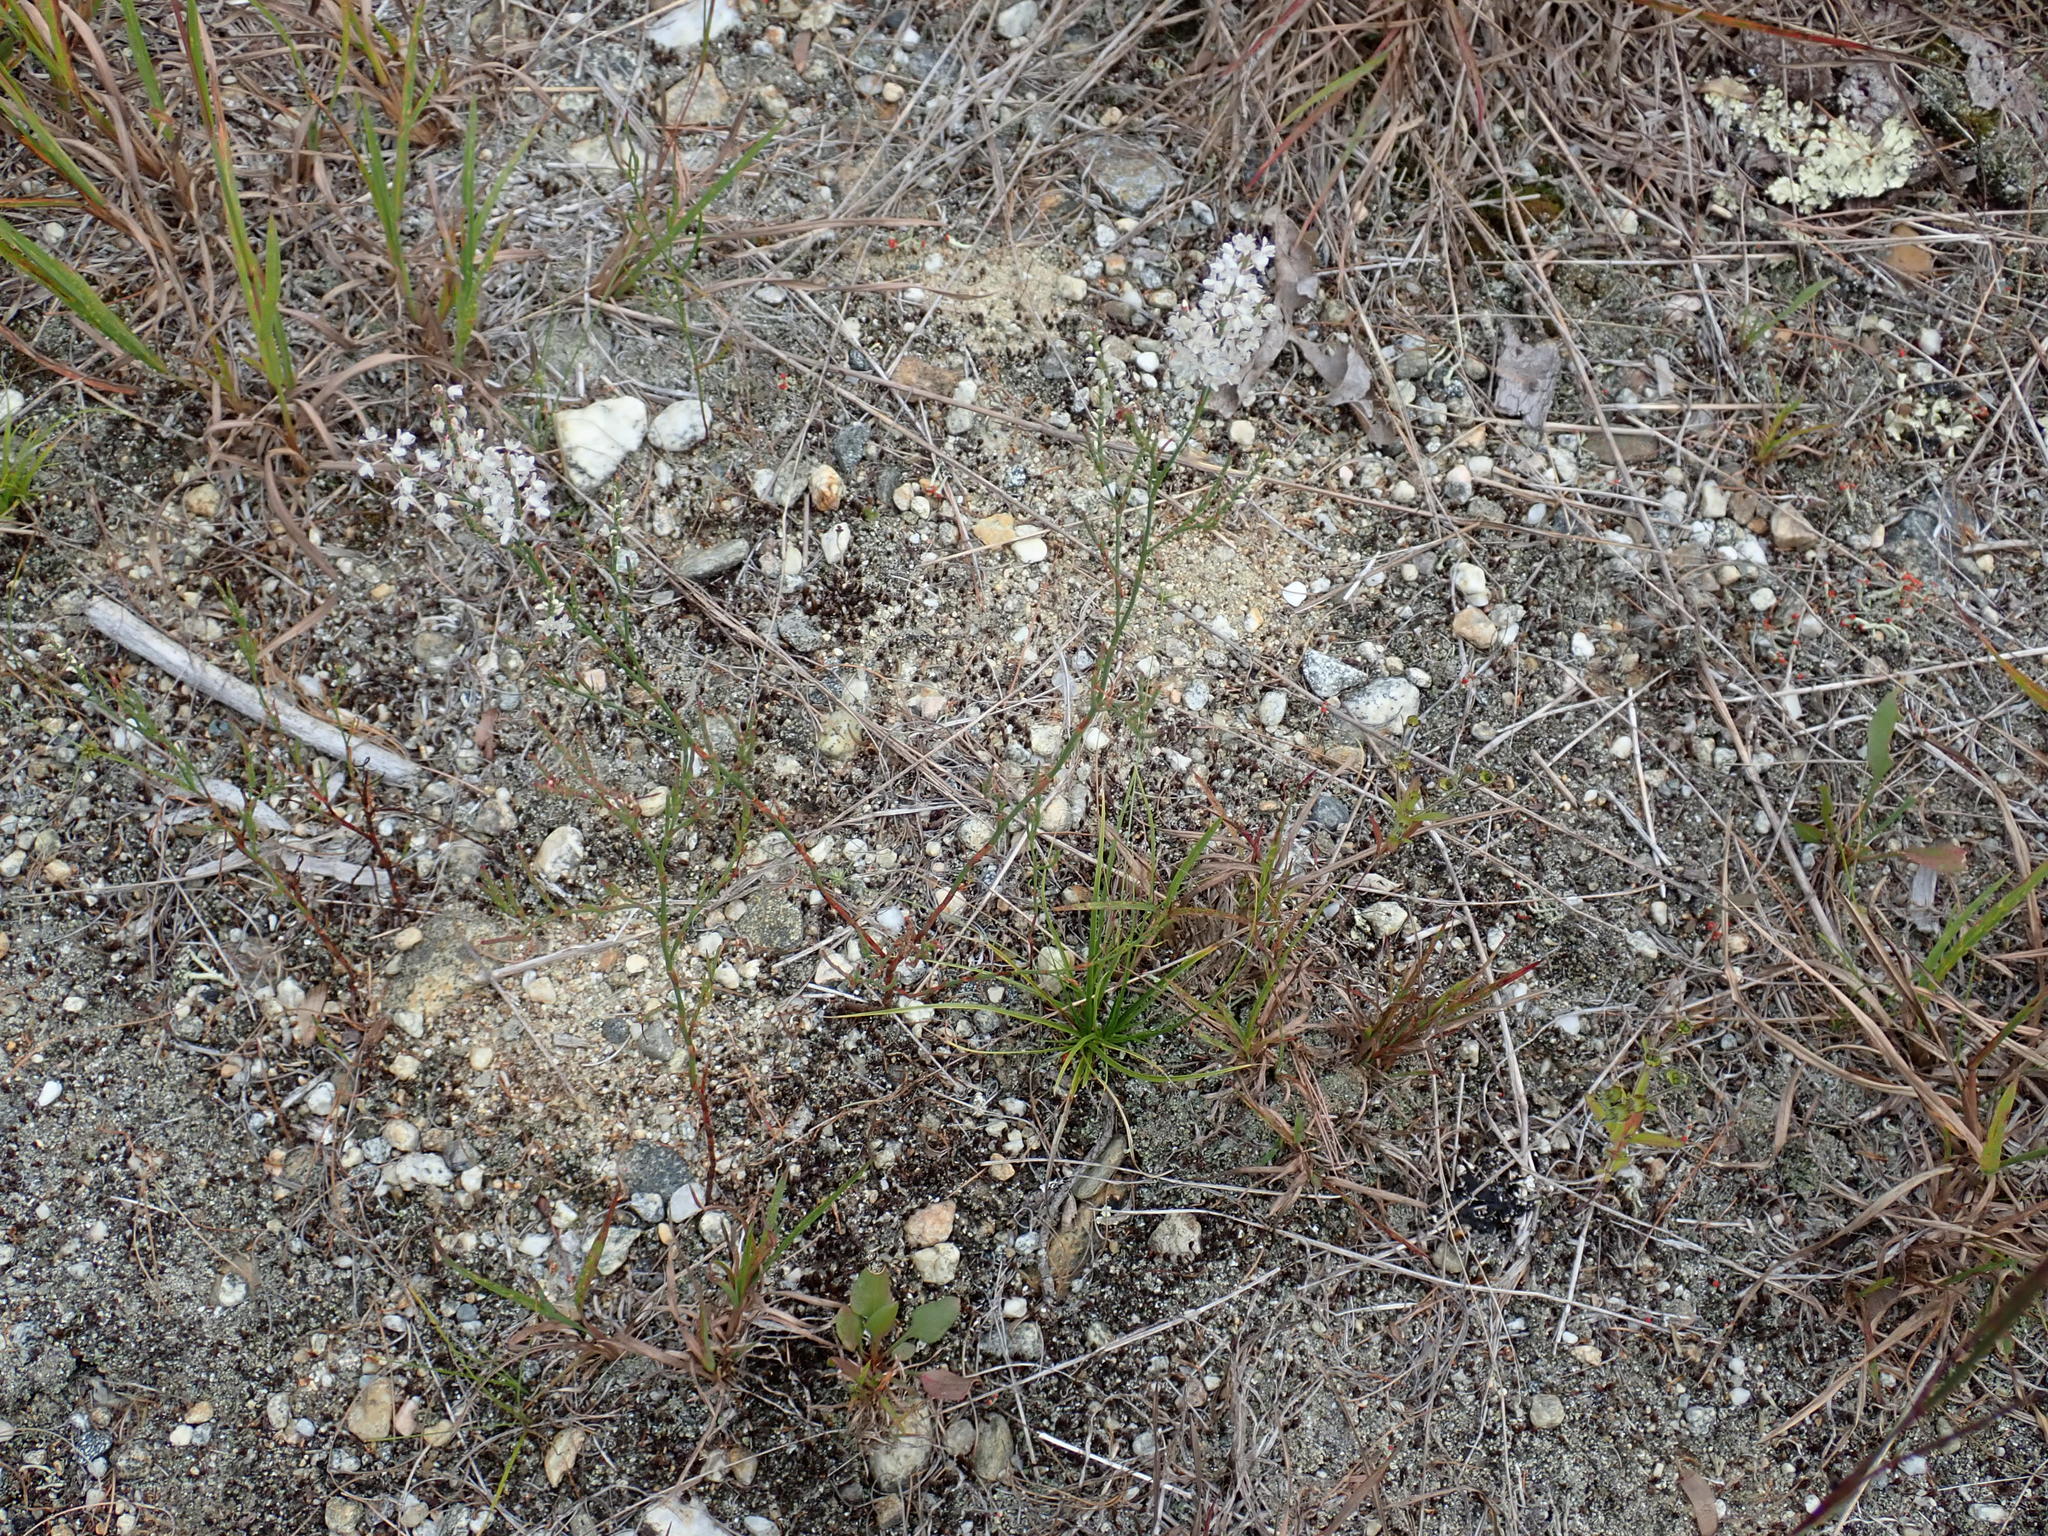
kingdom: Plantae
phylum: Tracheophyta
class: Magnoliopsida
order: Caryophyllales
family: Polygonaceae
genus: Polygonella
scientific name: Polygonella articulata
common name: Coastal jointweed
